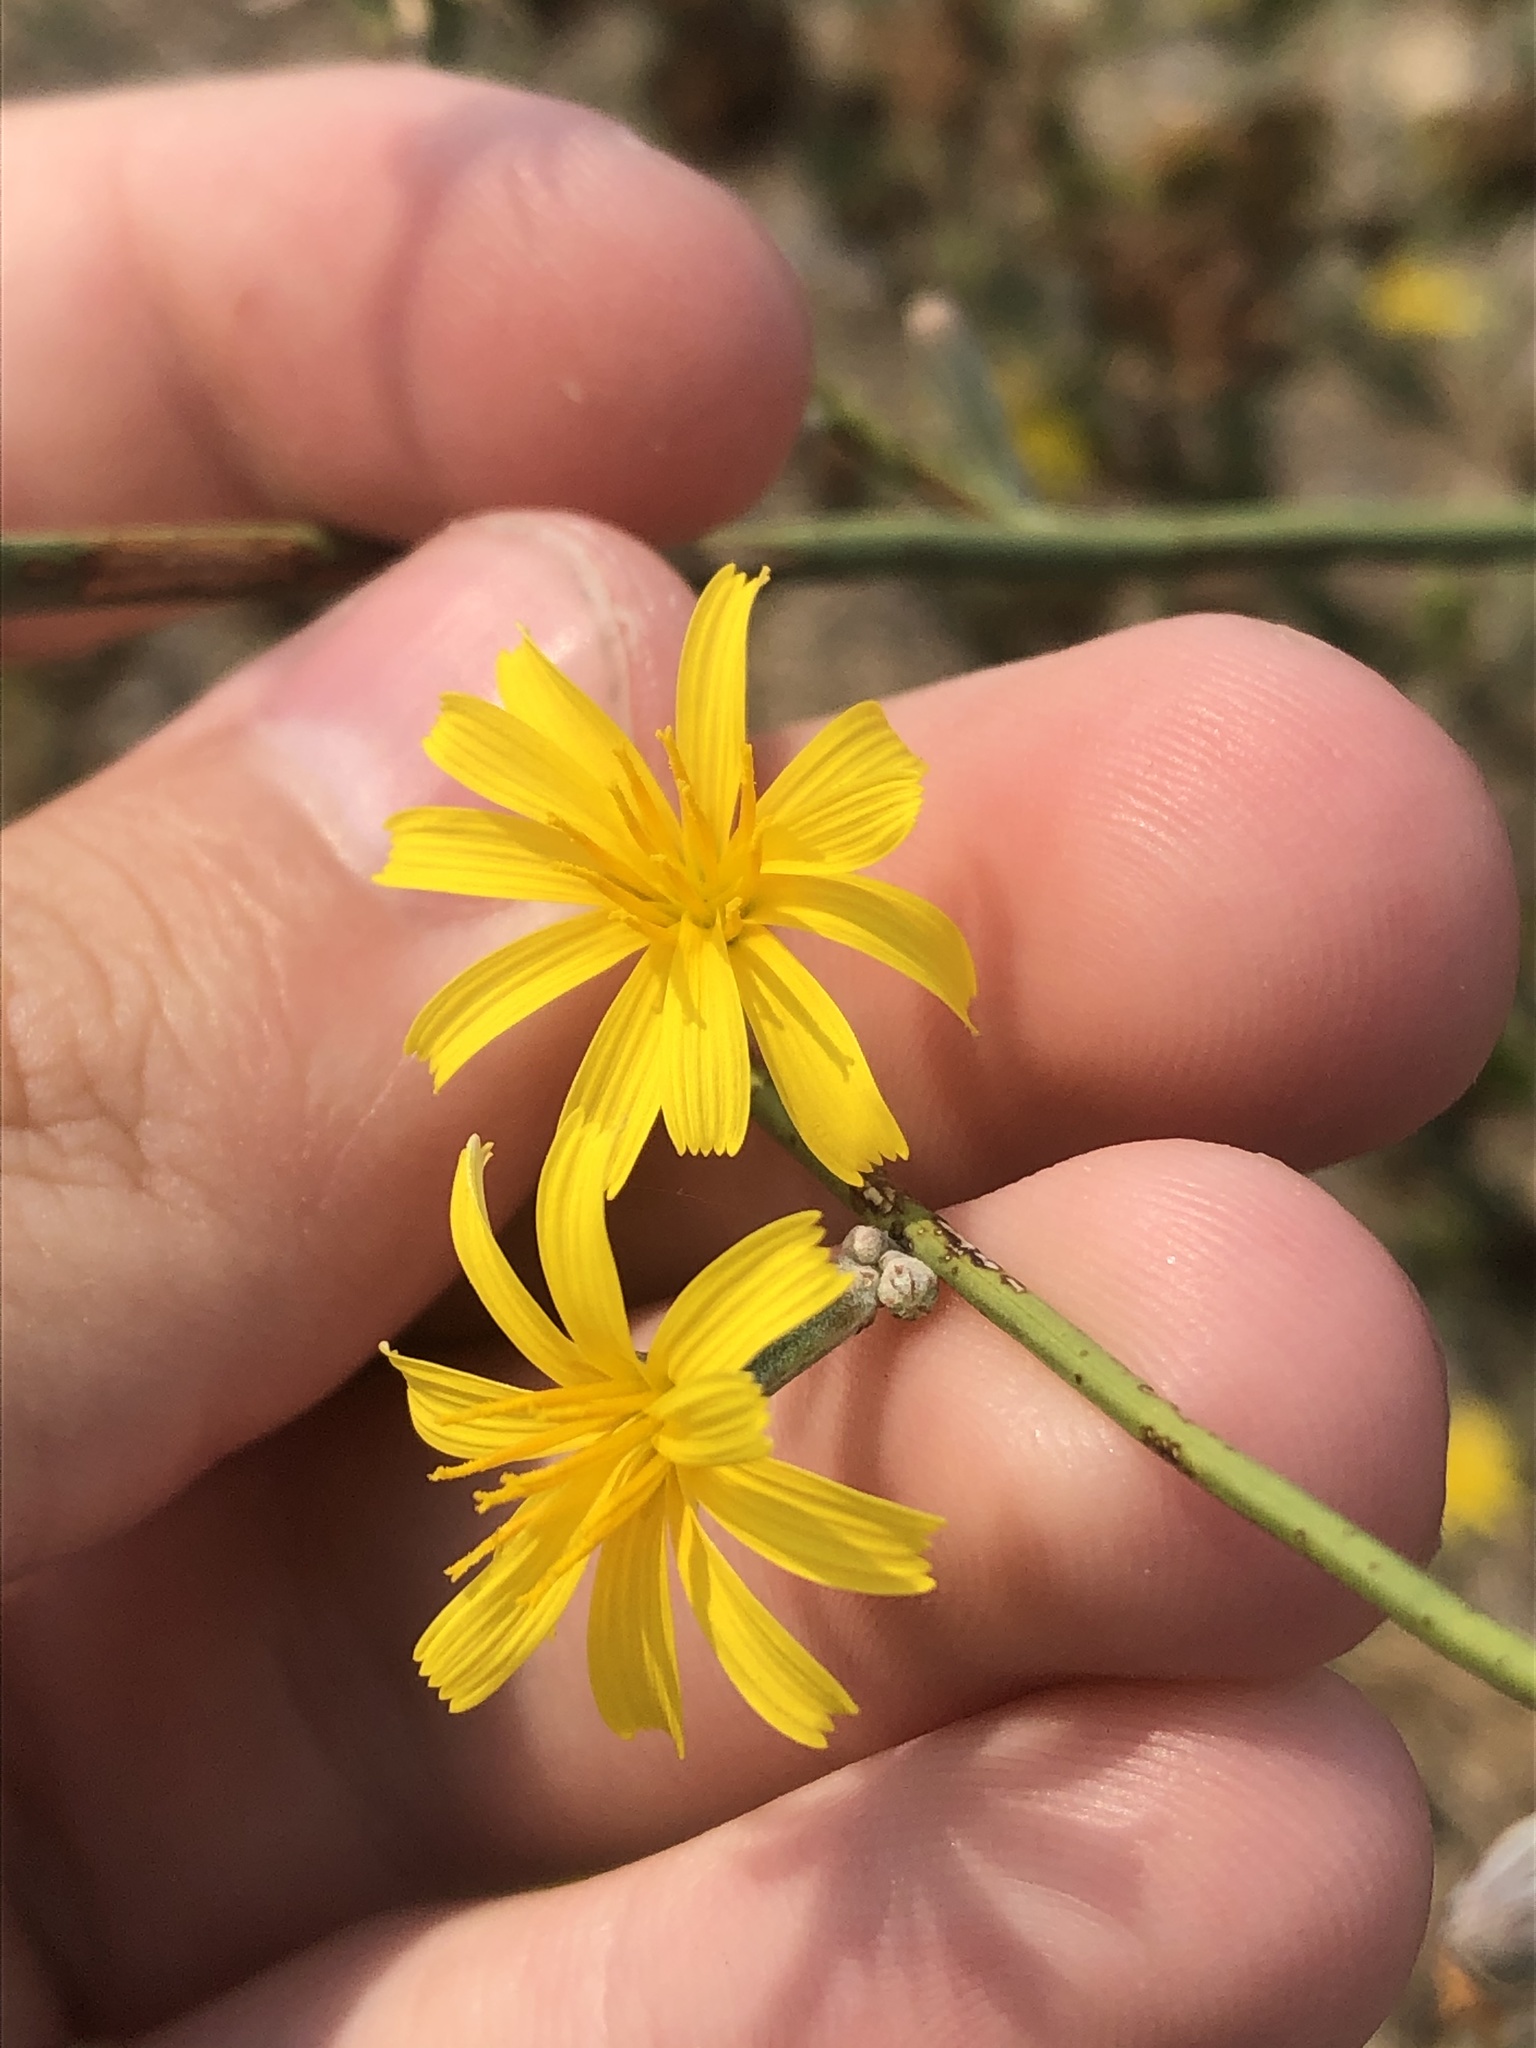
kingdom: Plantae
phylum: Tracheophyta
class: Magnoliopsida
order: Asterales
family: Asteraceae
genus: Chondrilla
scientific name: Chondrilla juncea
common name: Skeleton weed
